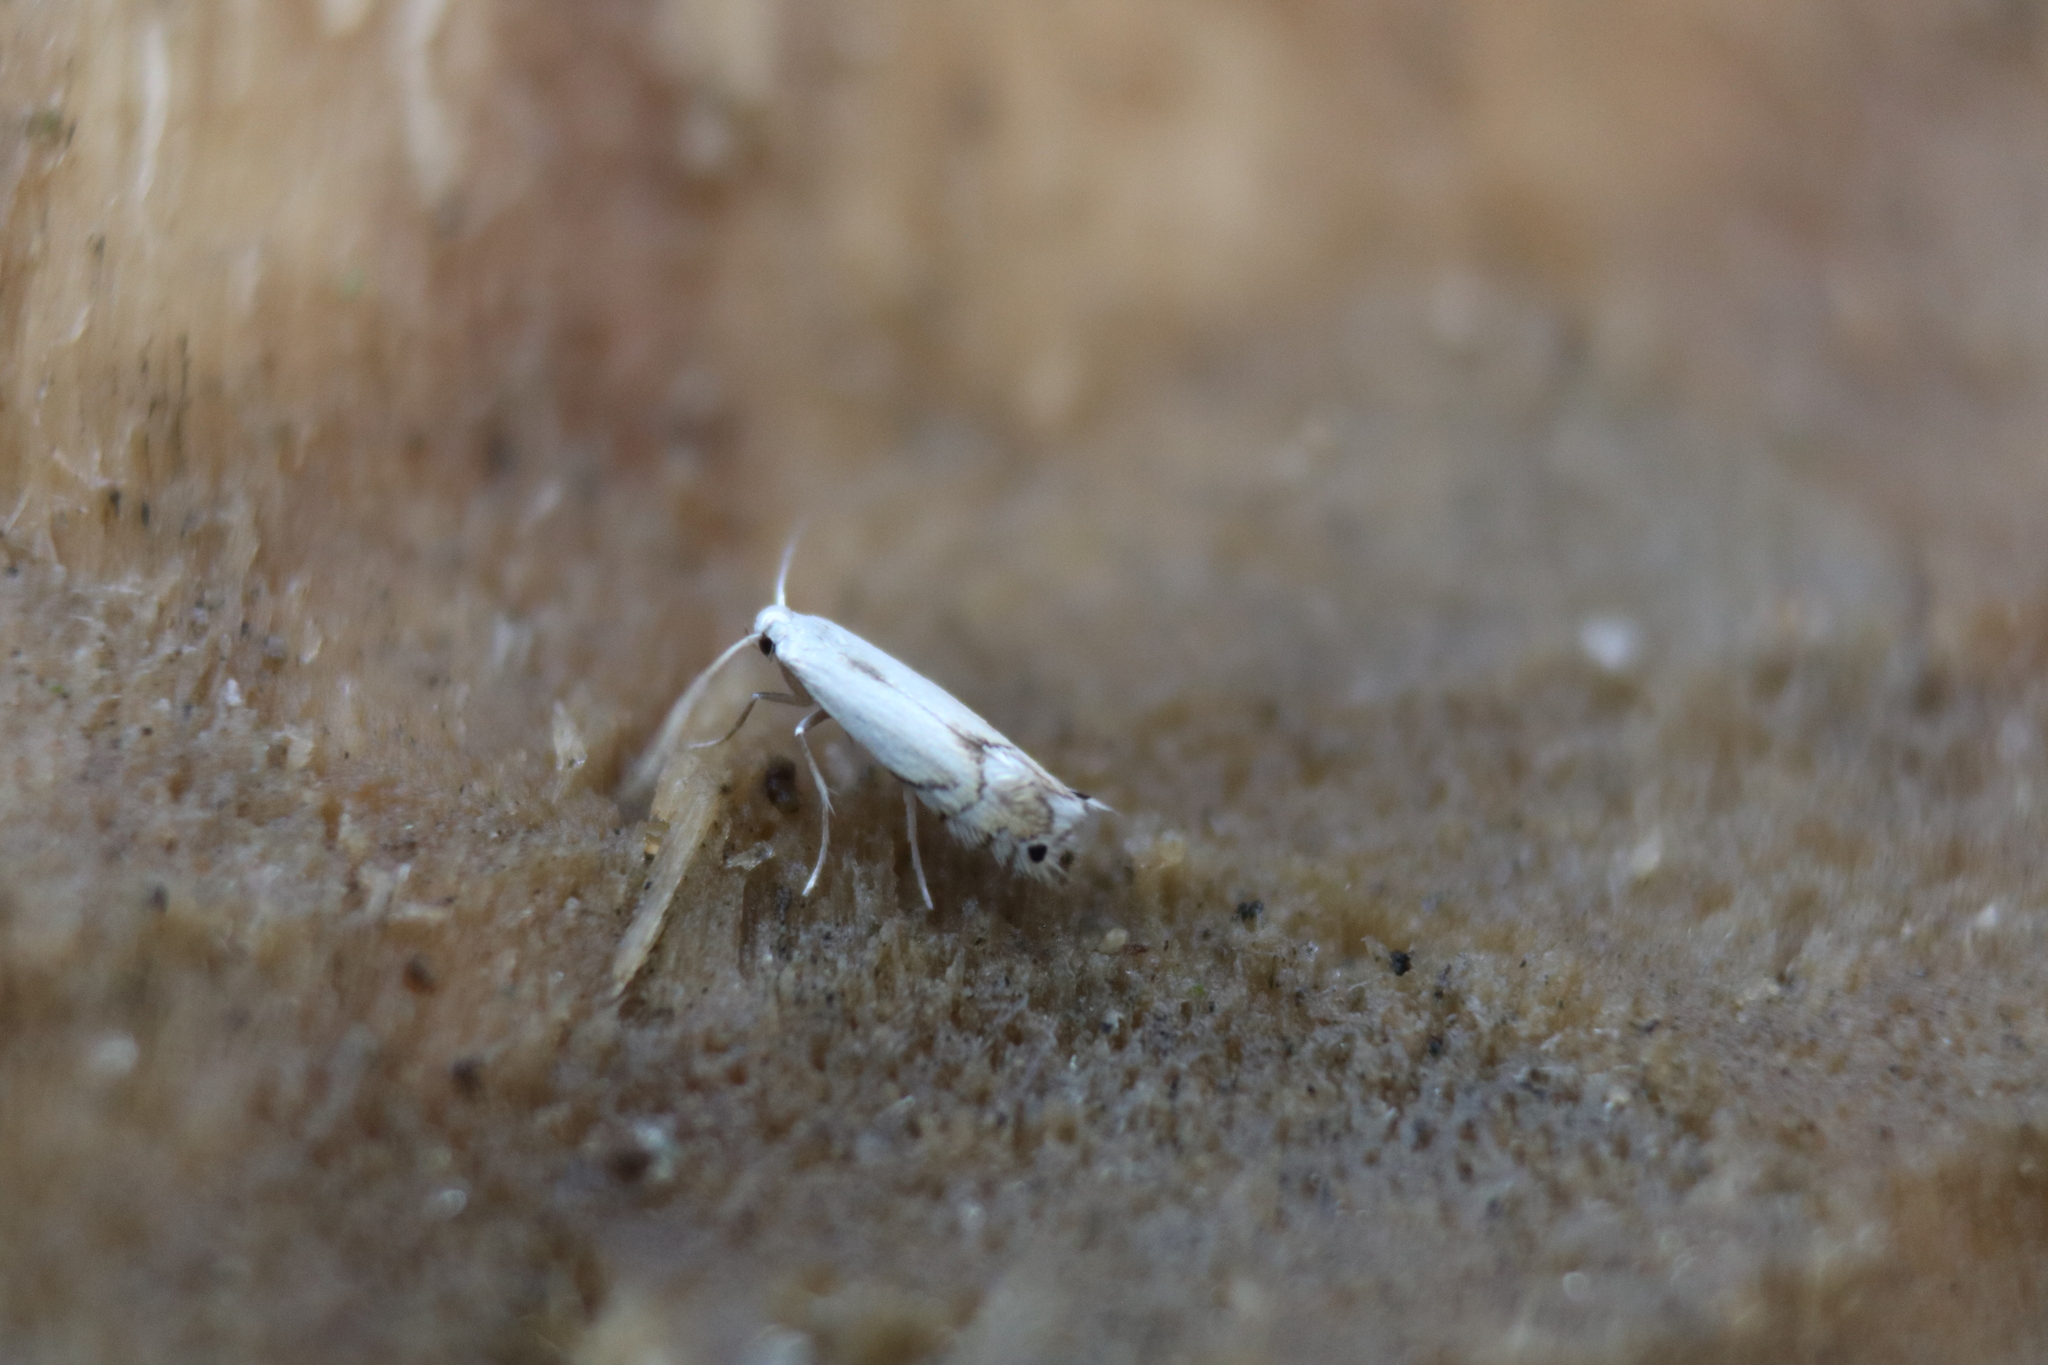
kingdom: Animalia
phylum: Arthropoda
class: Insecta
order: Lepidoptera
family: Gracillariidae
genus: Phyllocnistis
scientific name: Phyllocnistis populiella
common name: Aspen serpentine leafminer moth
